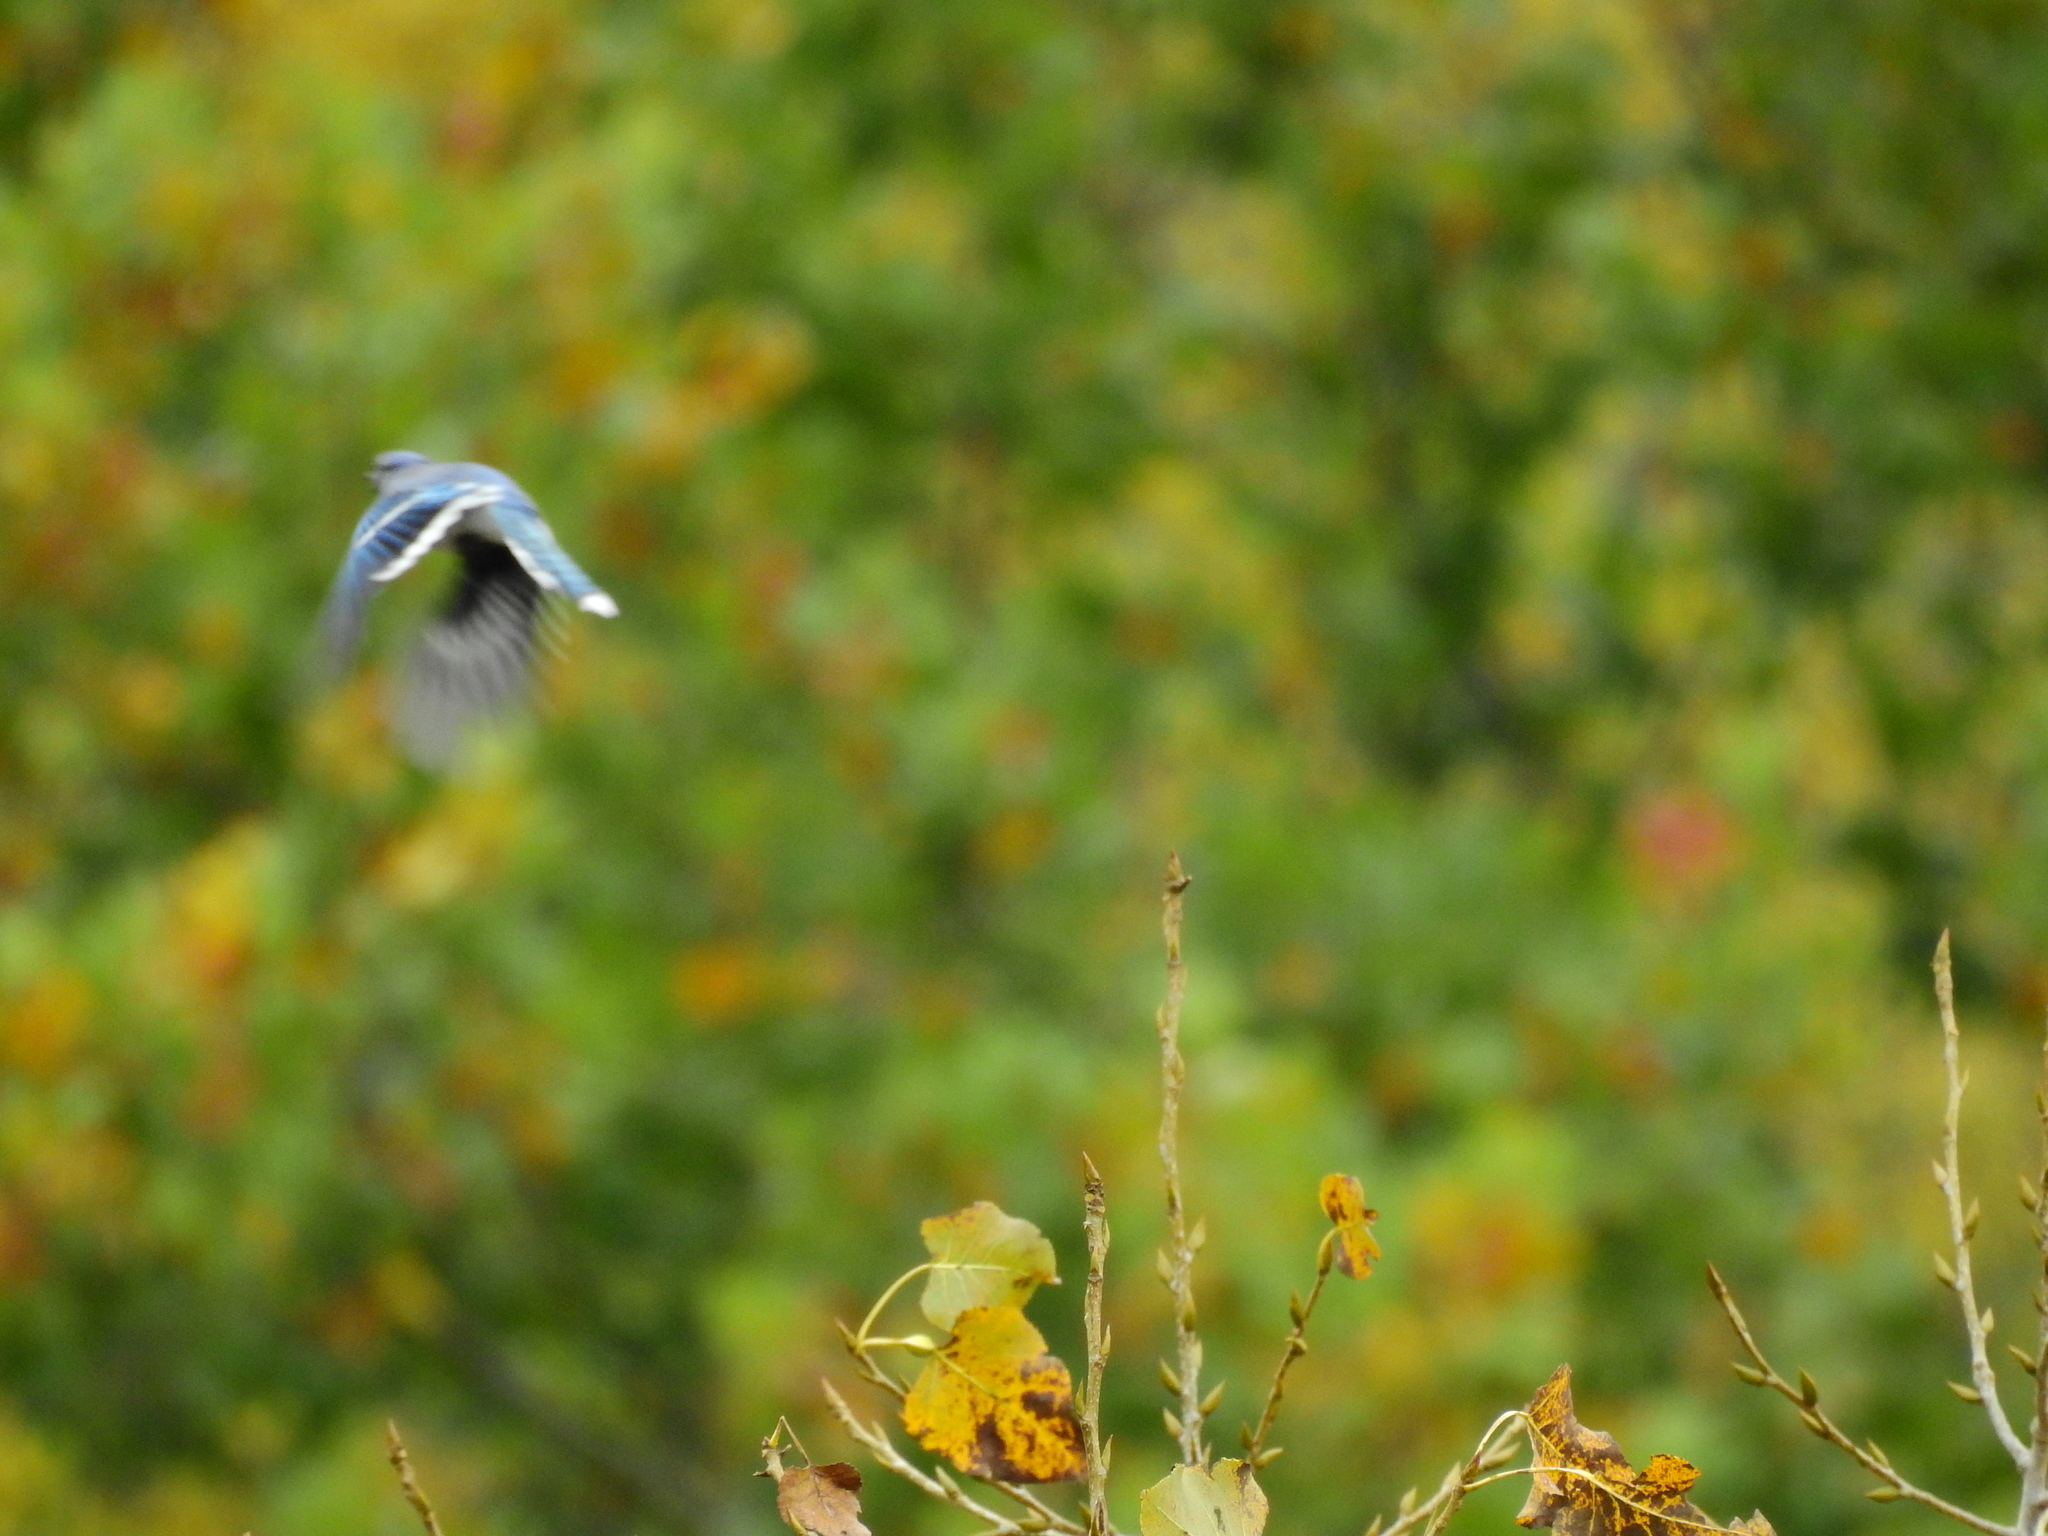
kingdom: Animalia
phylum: Chordata
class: Aves
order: Passeriformes
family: Corvidae
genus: Cyanocitta
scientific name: Cyanocitta cristata
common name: Blue jay
